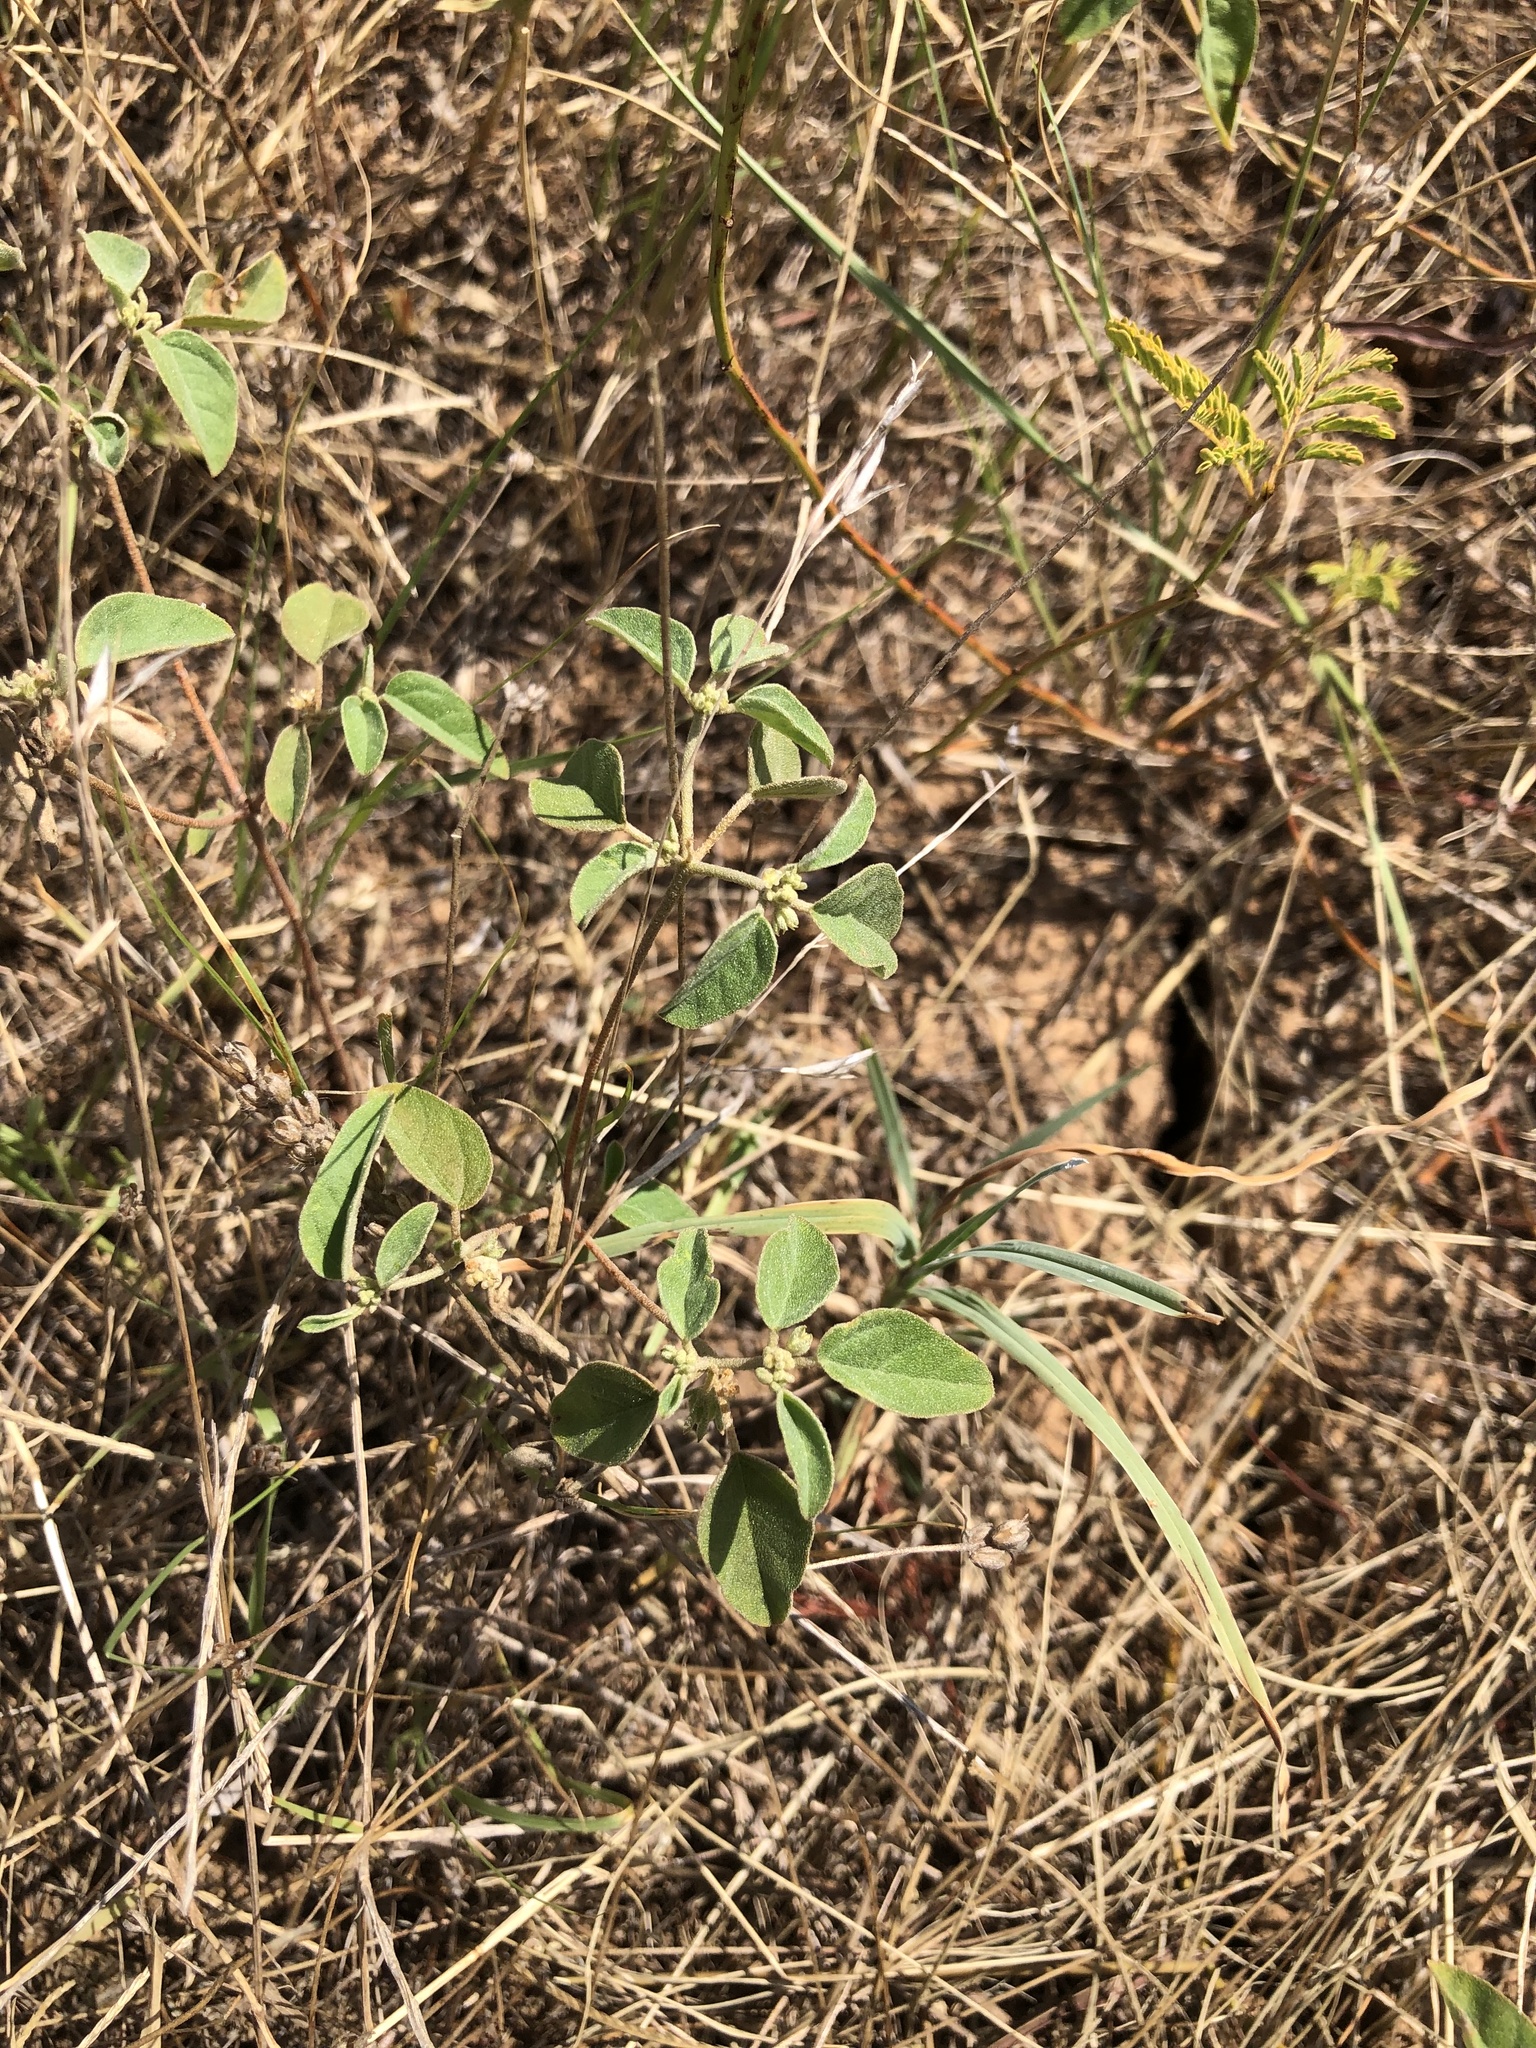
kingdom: Plantae
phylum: Tracheophyta
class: Magnoliopsida
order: Malpighiales
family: Euphorbiaceae
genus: Croton
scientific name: Croton monanthogynus
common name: One-seed croton
